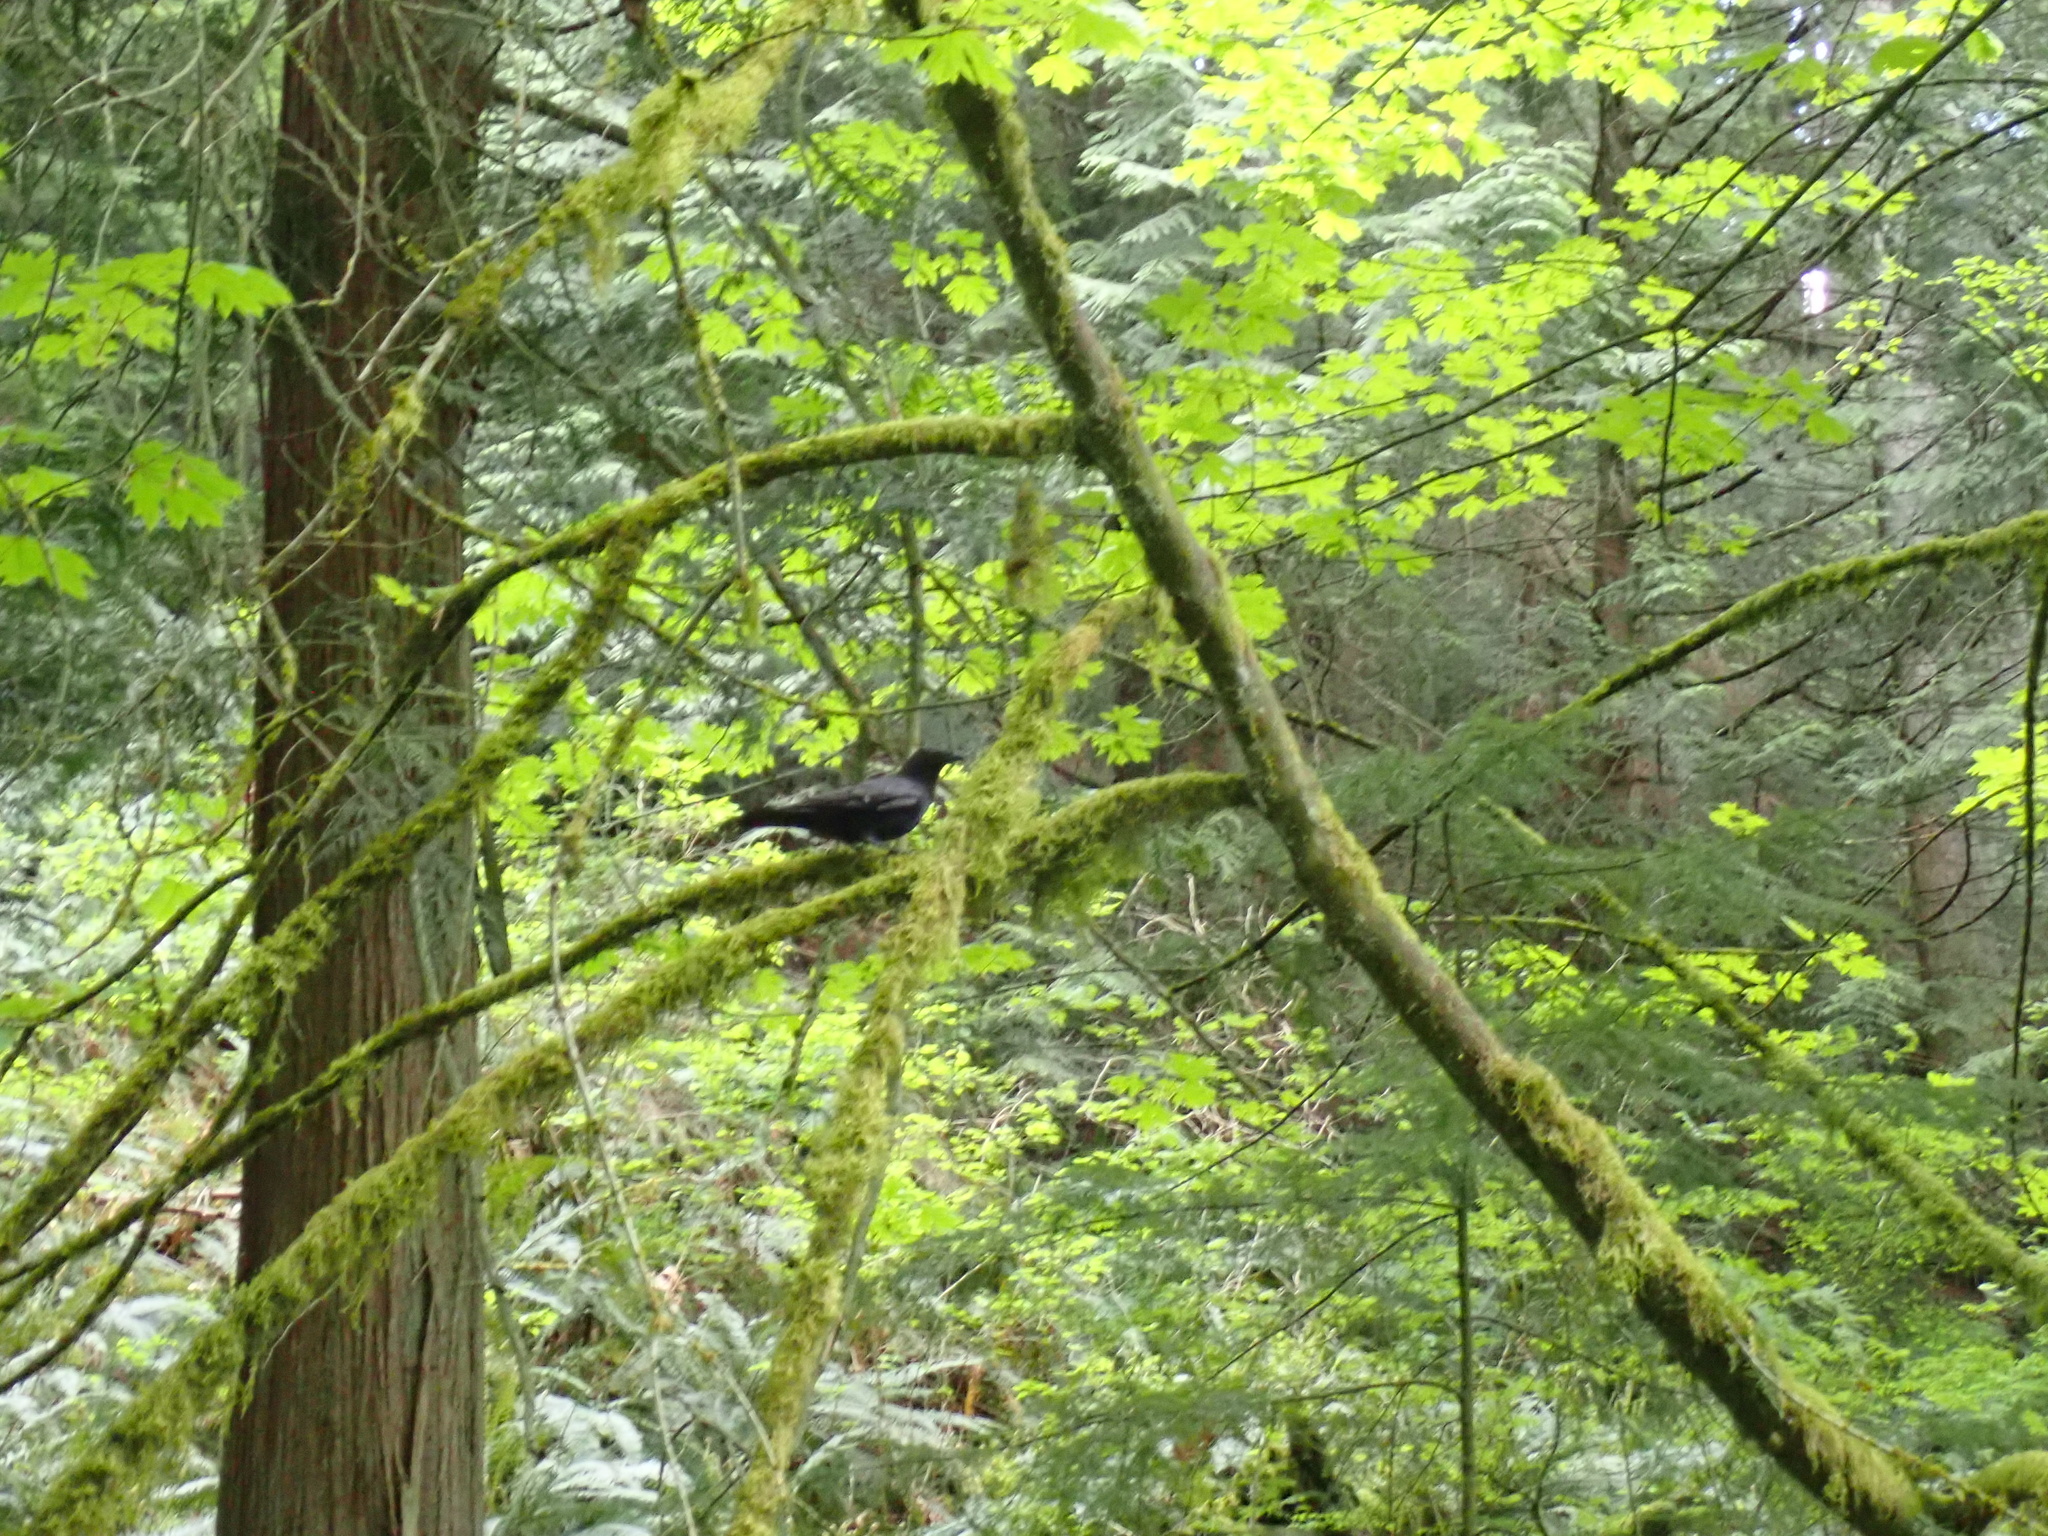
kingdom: Animalia
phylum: Chordata
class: Aves
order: Passeriformes
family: Corvidae
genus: Corvus
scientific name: Corvus brachyrhynchos
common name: American crow
